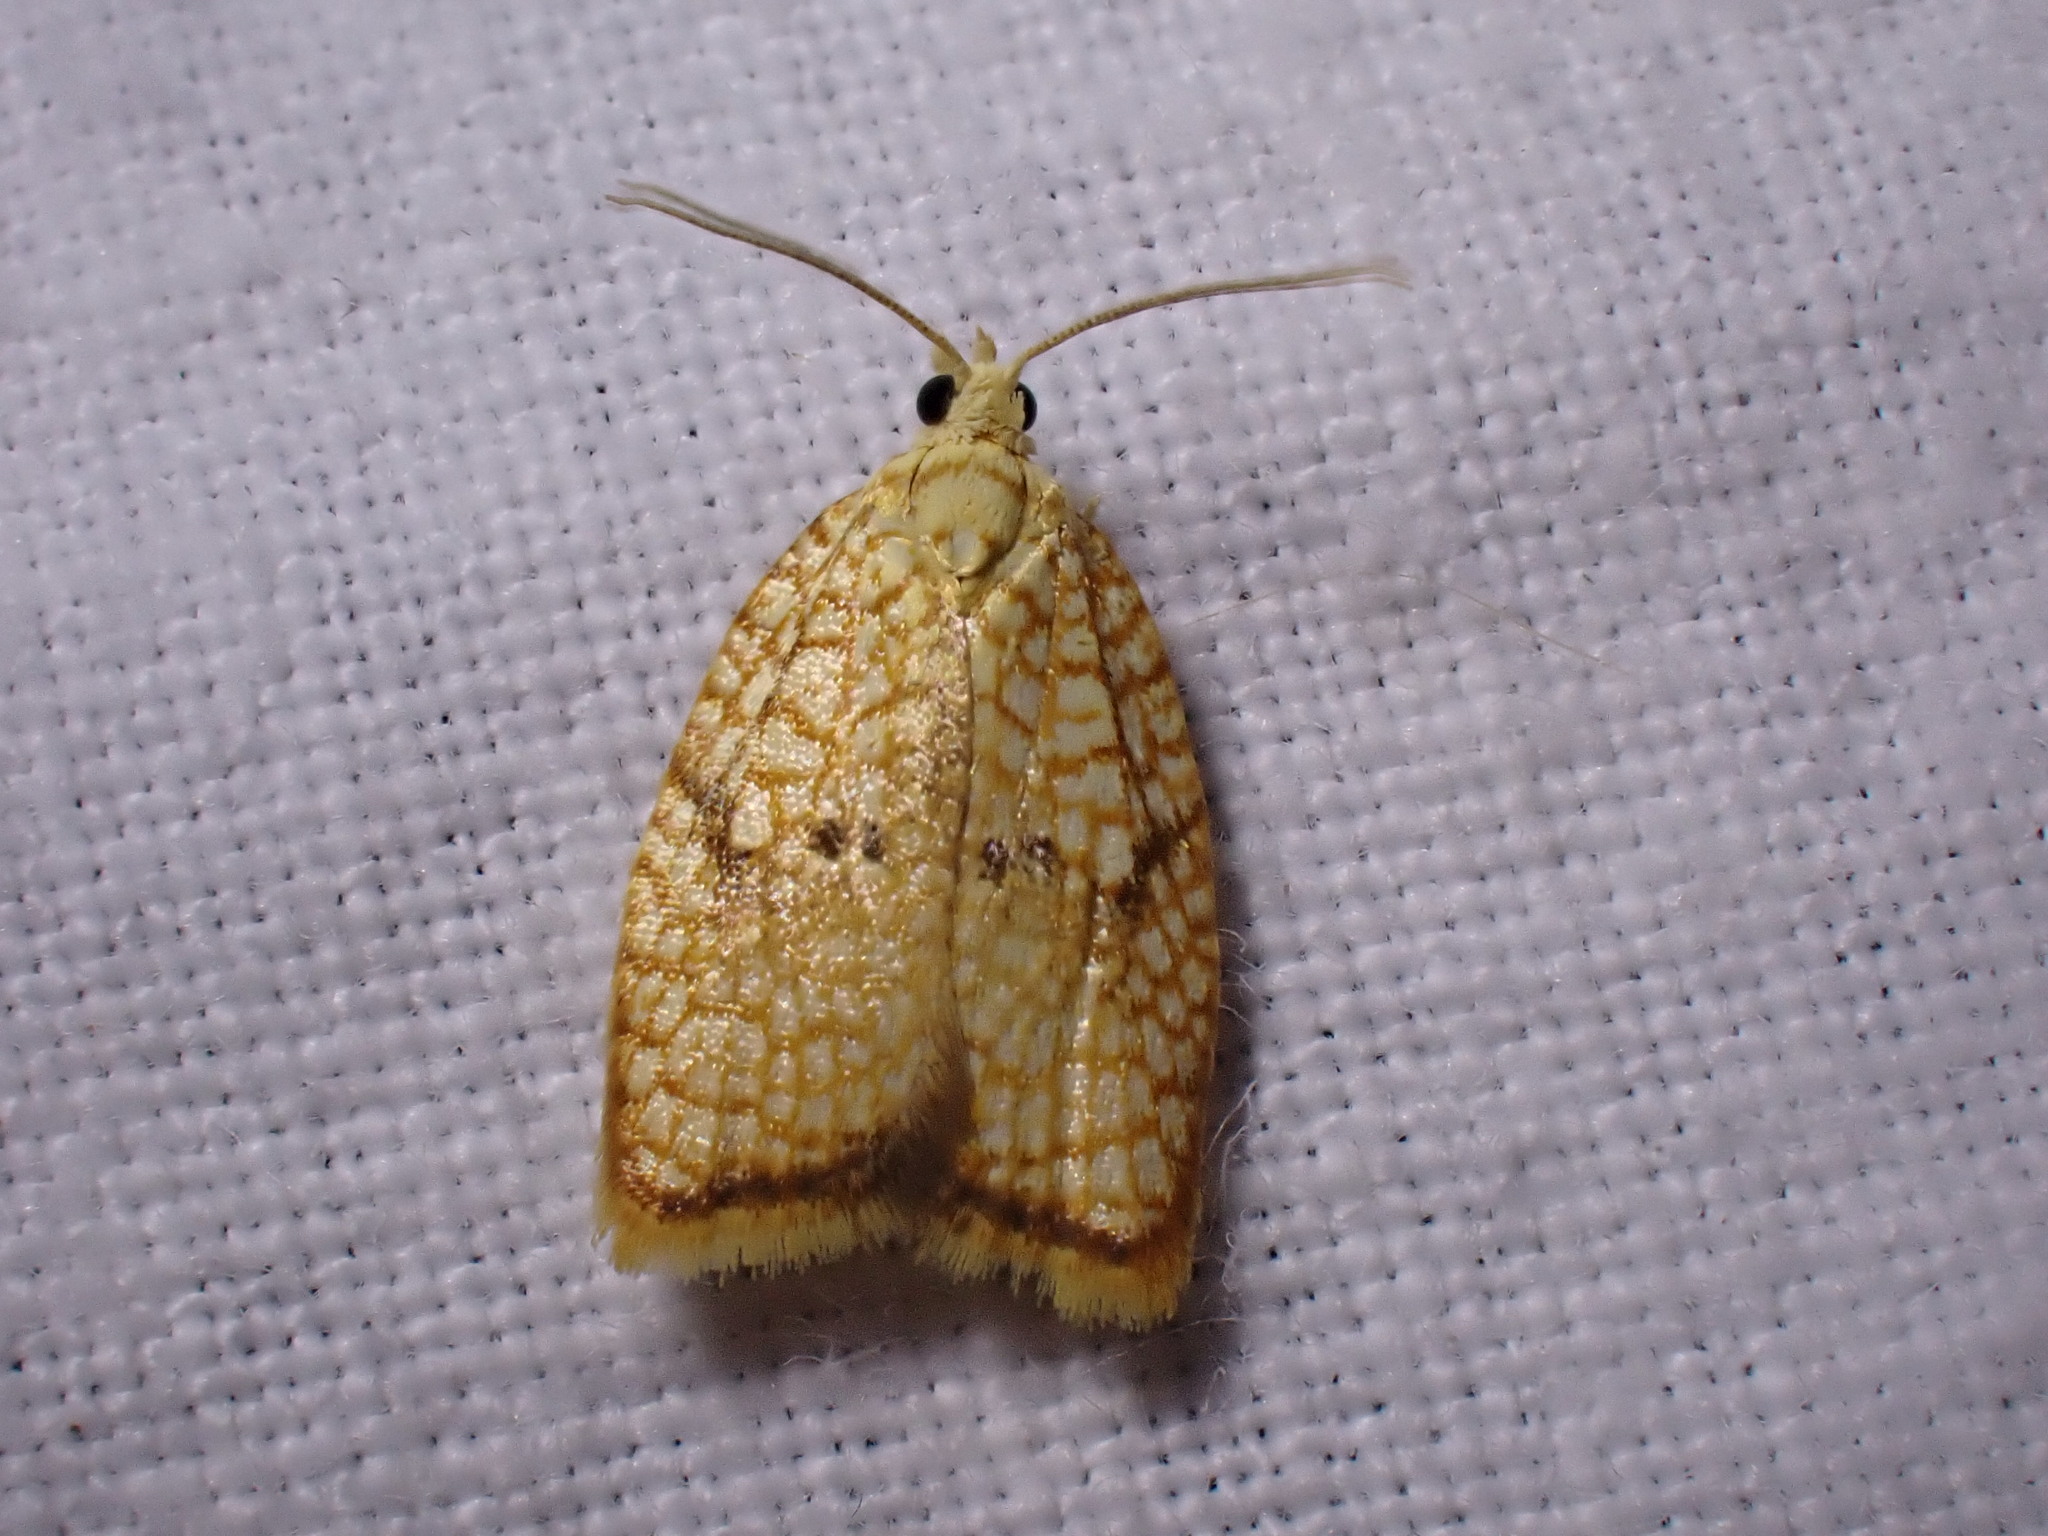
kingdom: Animalia
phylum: Arthropoda
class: Insecta
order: Lepidoptera
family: Tortricidae
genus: Acleris
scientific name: Acleris forsskaleana
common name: Maple button
